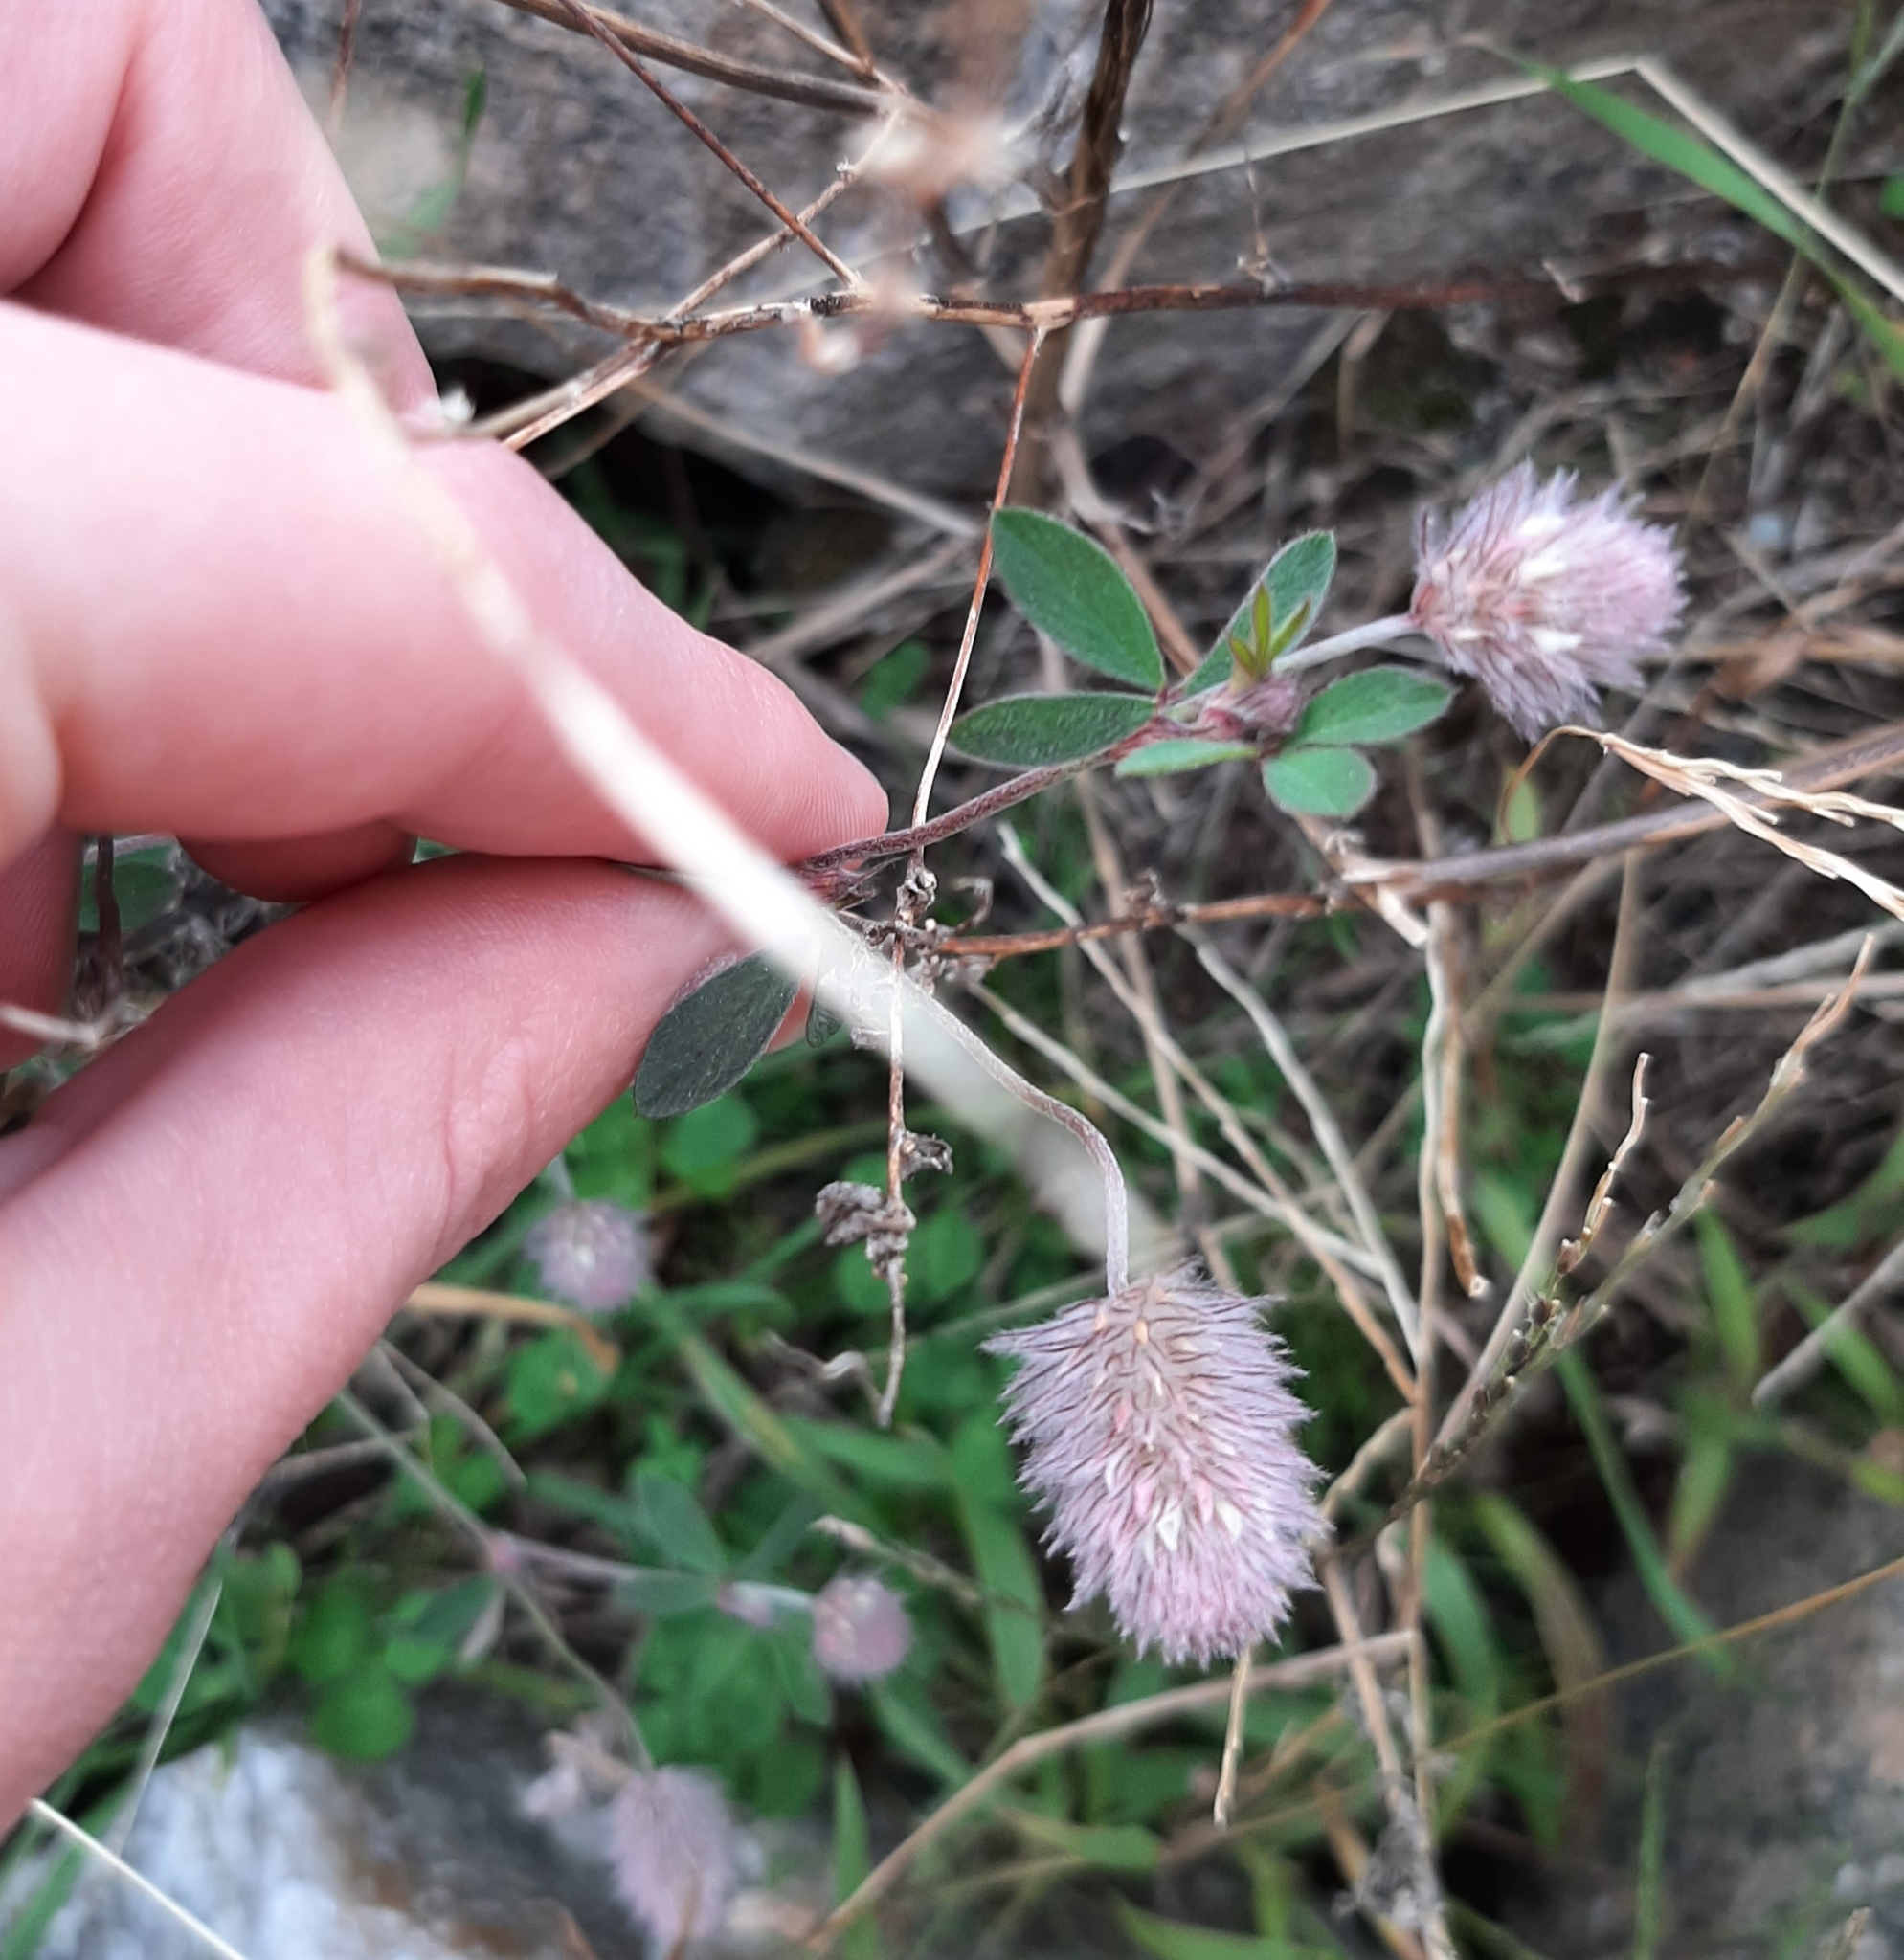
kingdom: Plantae
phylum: Tracheophyta
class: Magnoliopsida
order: Fabales
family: Fabaceae
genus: Trifolium
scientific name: Trifolium arvense
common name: Hare's-foot clover
